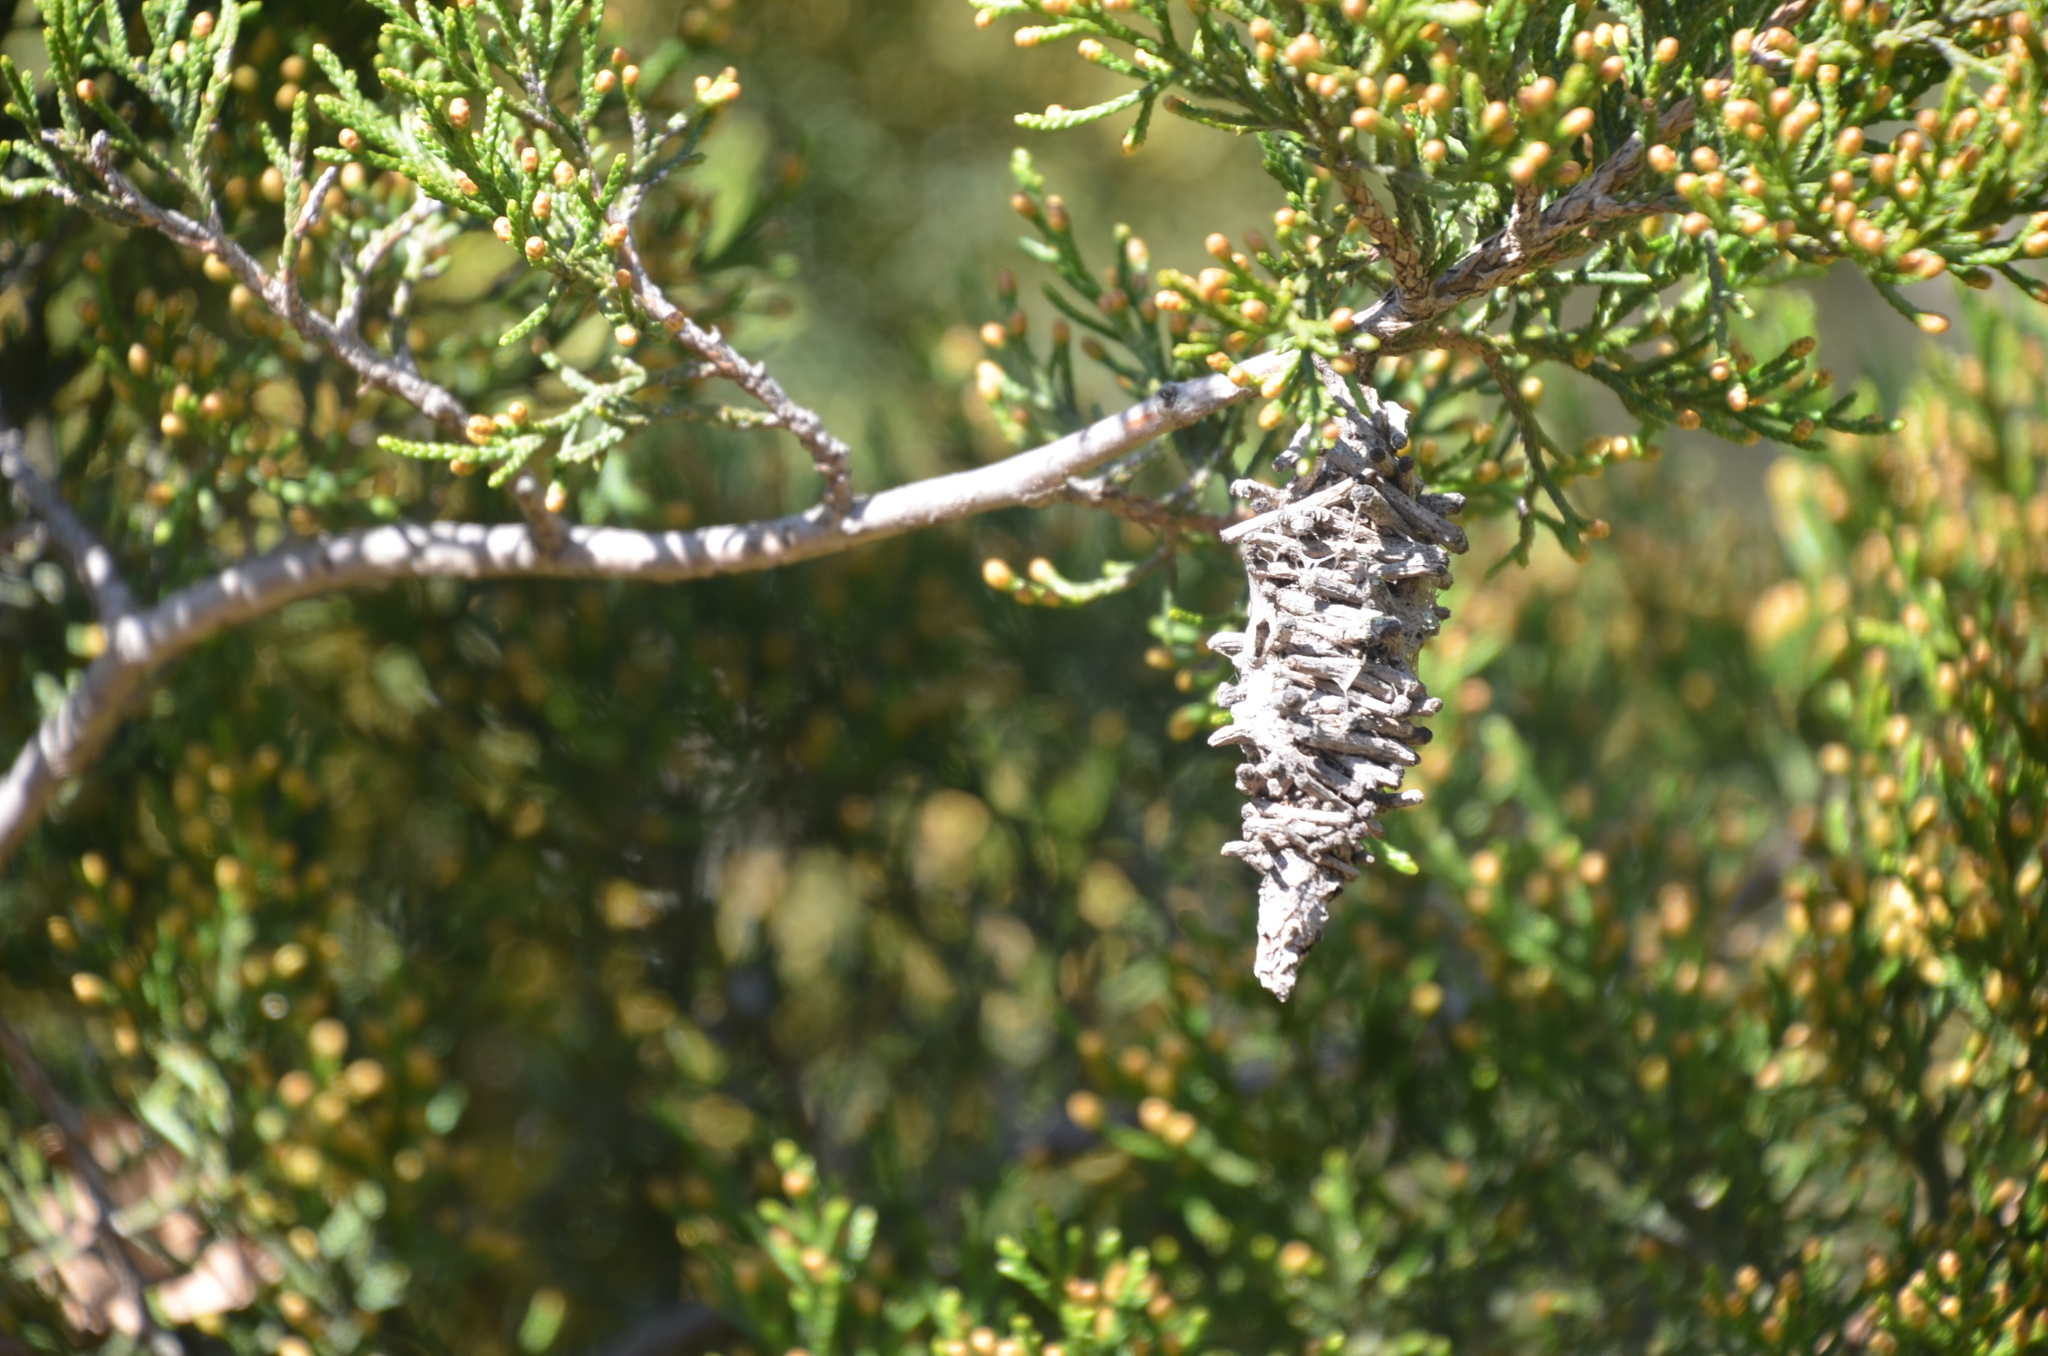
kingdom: Animalia
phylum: Arthropoda
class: Insecta
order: Lepidoptera
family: Psychidae
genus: Oiketicus
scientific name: Oiketicus
